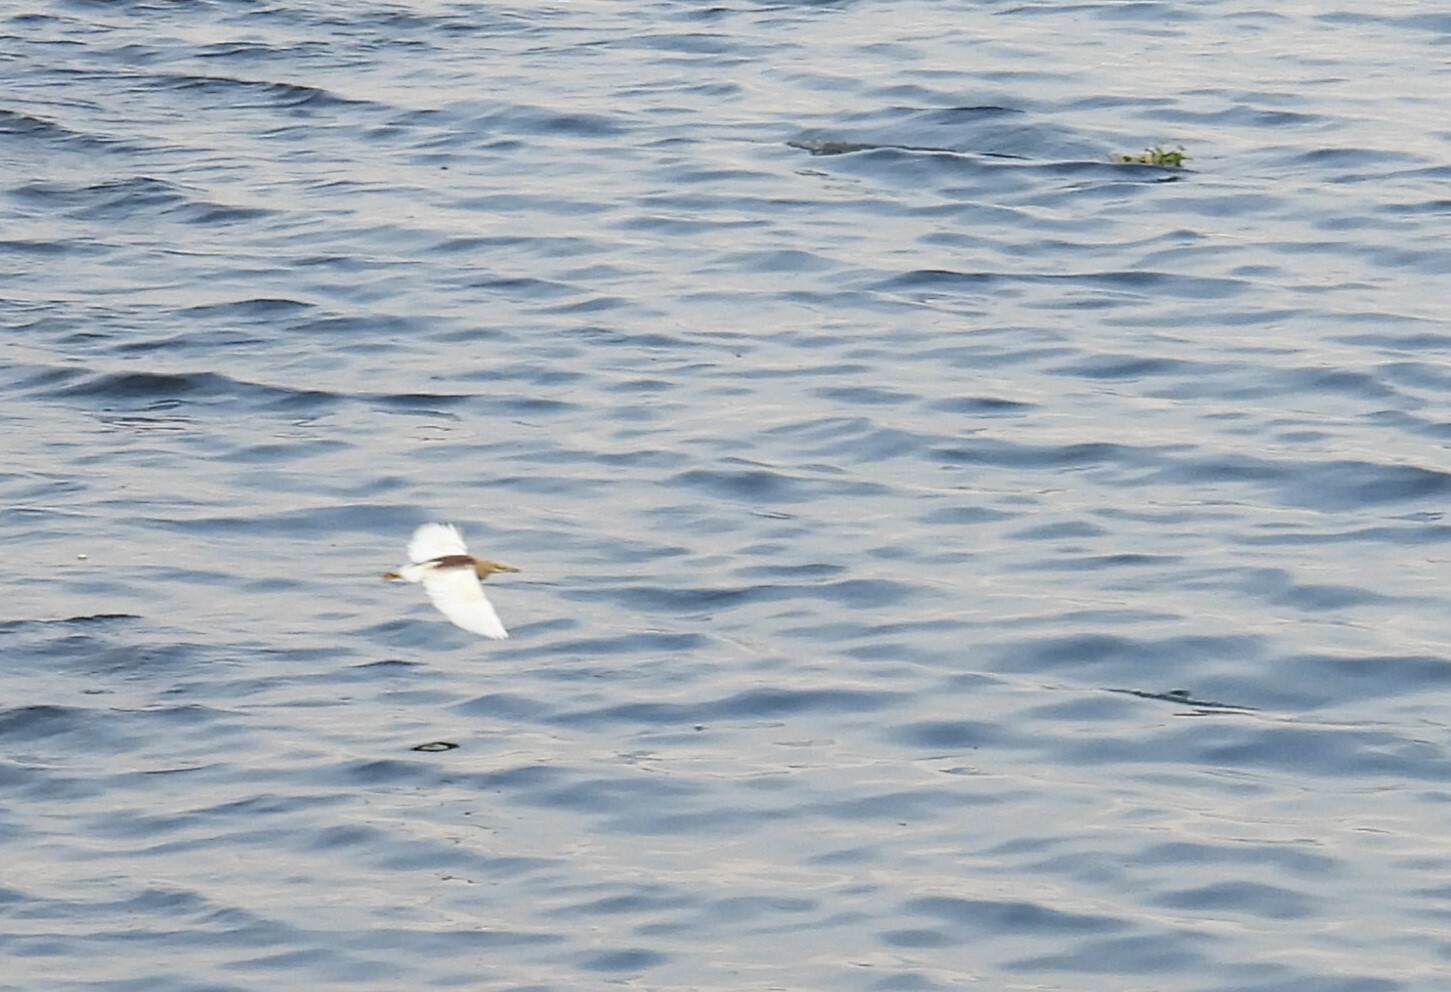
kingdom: Animalia
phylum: Chordata
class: Aves
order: Pelecaniformes
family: Ardeidae
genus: Ardeola
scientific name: Ardeola grayii
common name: Indian pond heron
